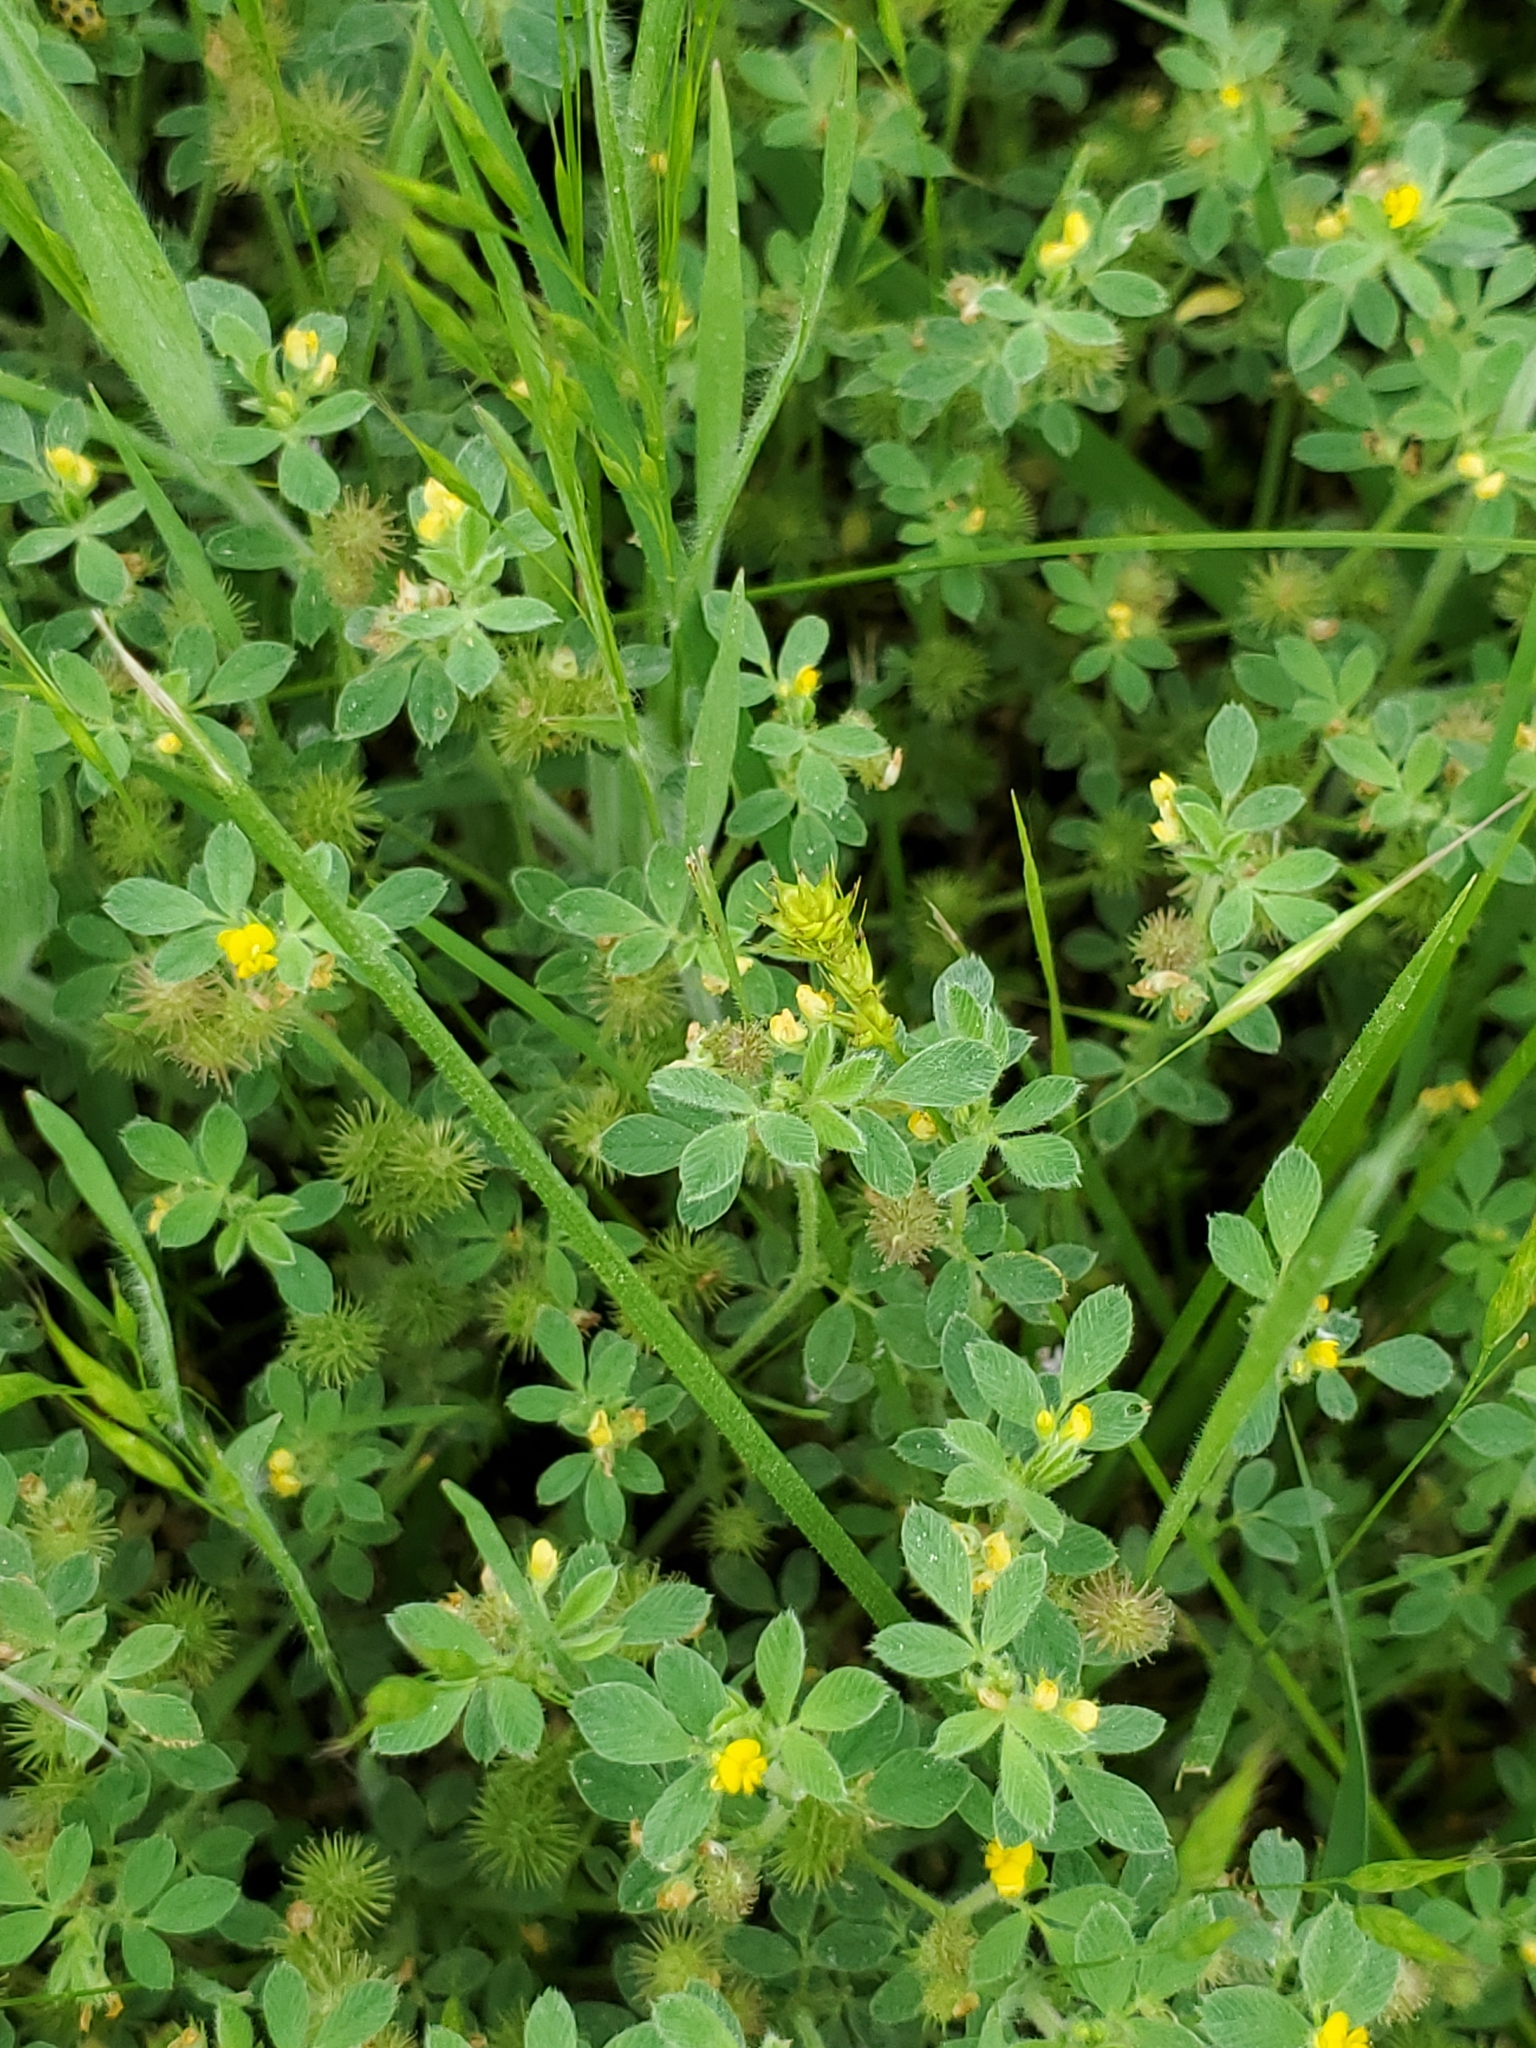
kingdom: Plantae
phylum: Tracheophyta
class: Magnoliopsida
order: Fabales
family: Fabaceae
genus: Medicago
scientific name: Medicago minima
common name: Little bur-clover
